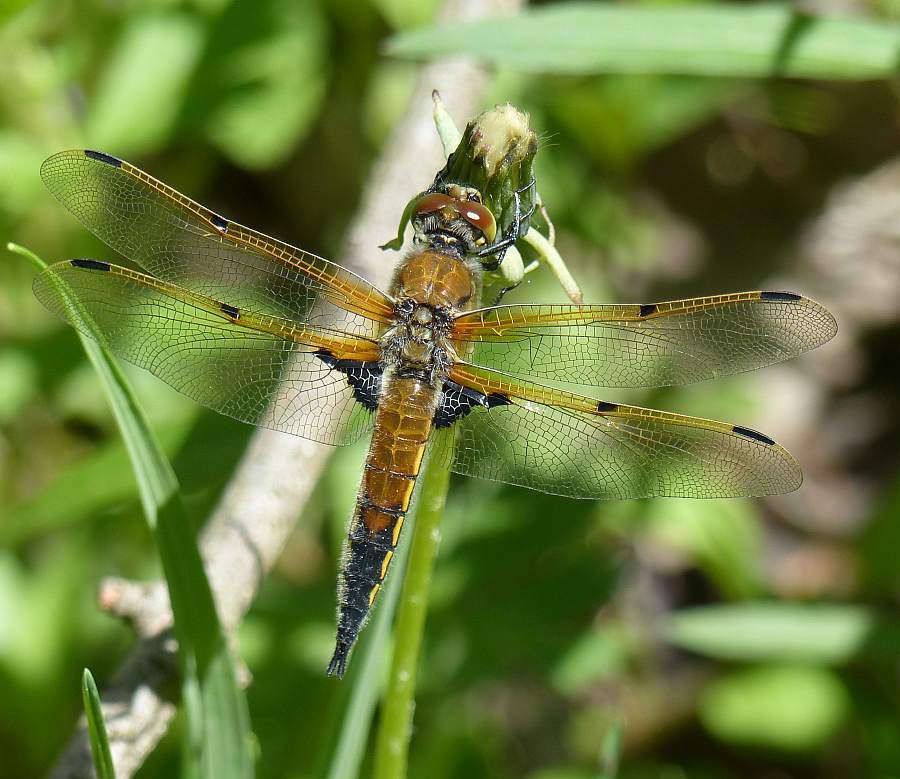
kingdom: Animalia
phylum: Arthropoda
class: Insecta
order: Odonata
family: Libellulidae
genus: Libellula
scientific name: Libellula quadrimaculata
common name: Four-spotted chaser
